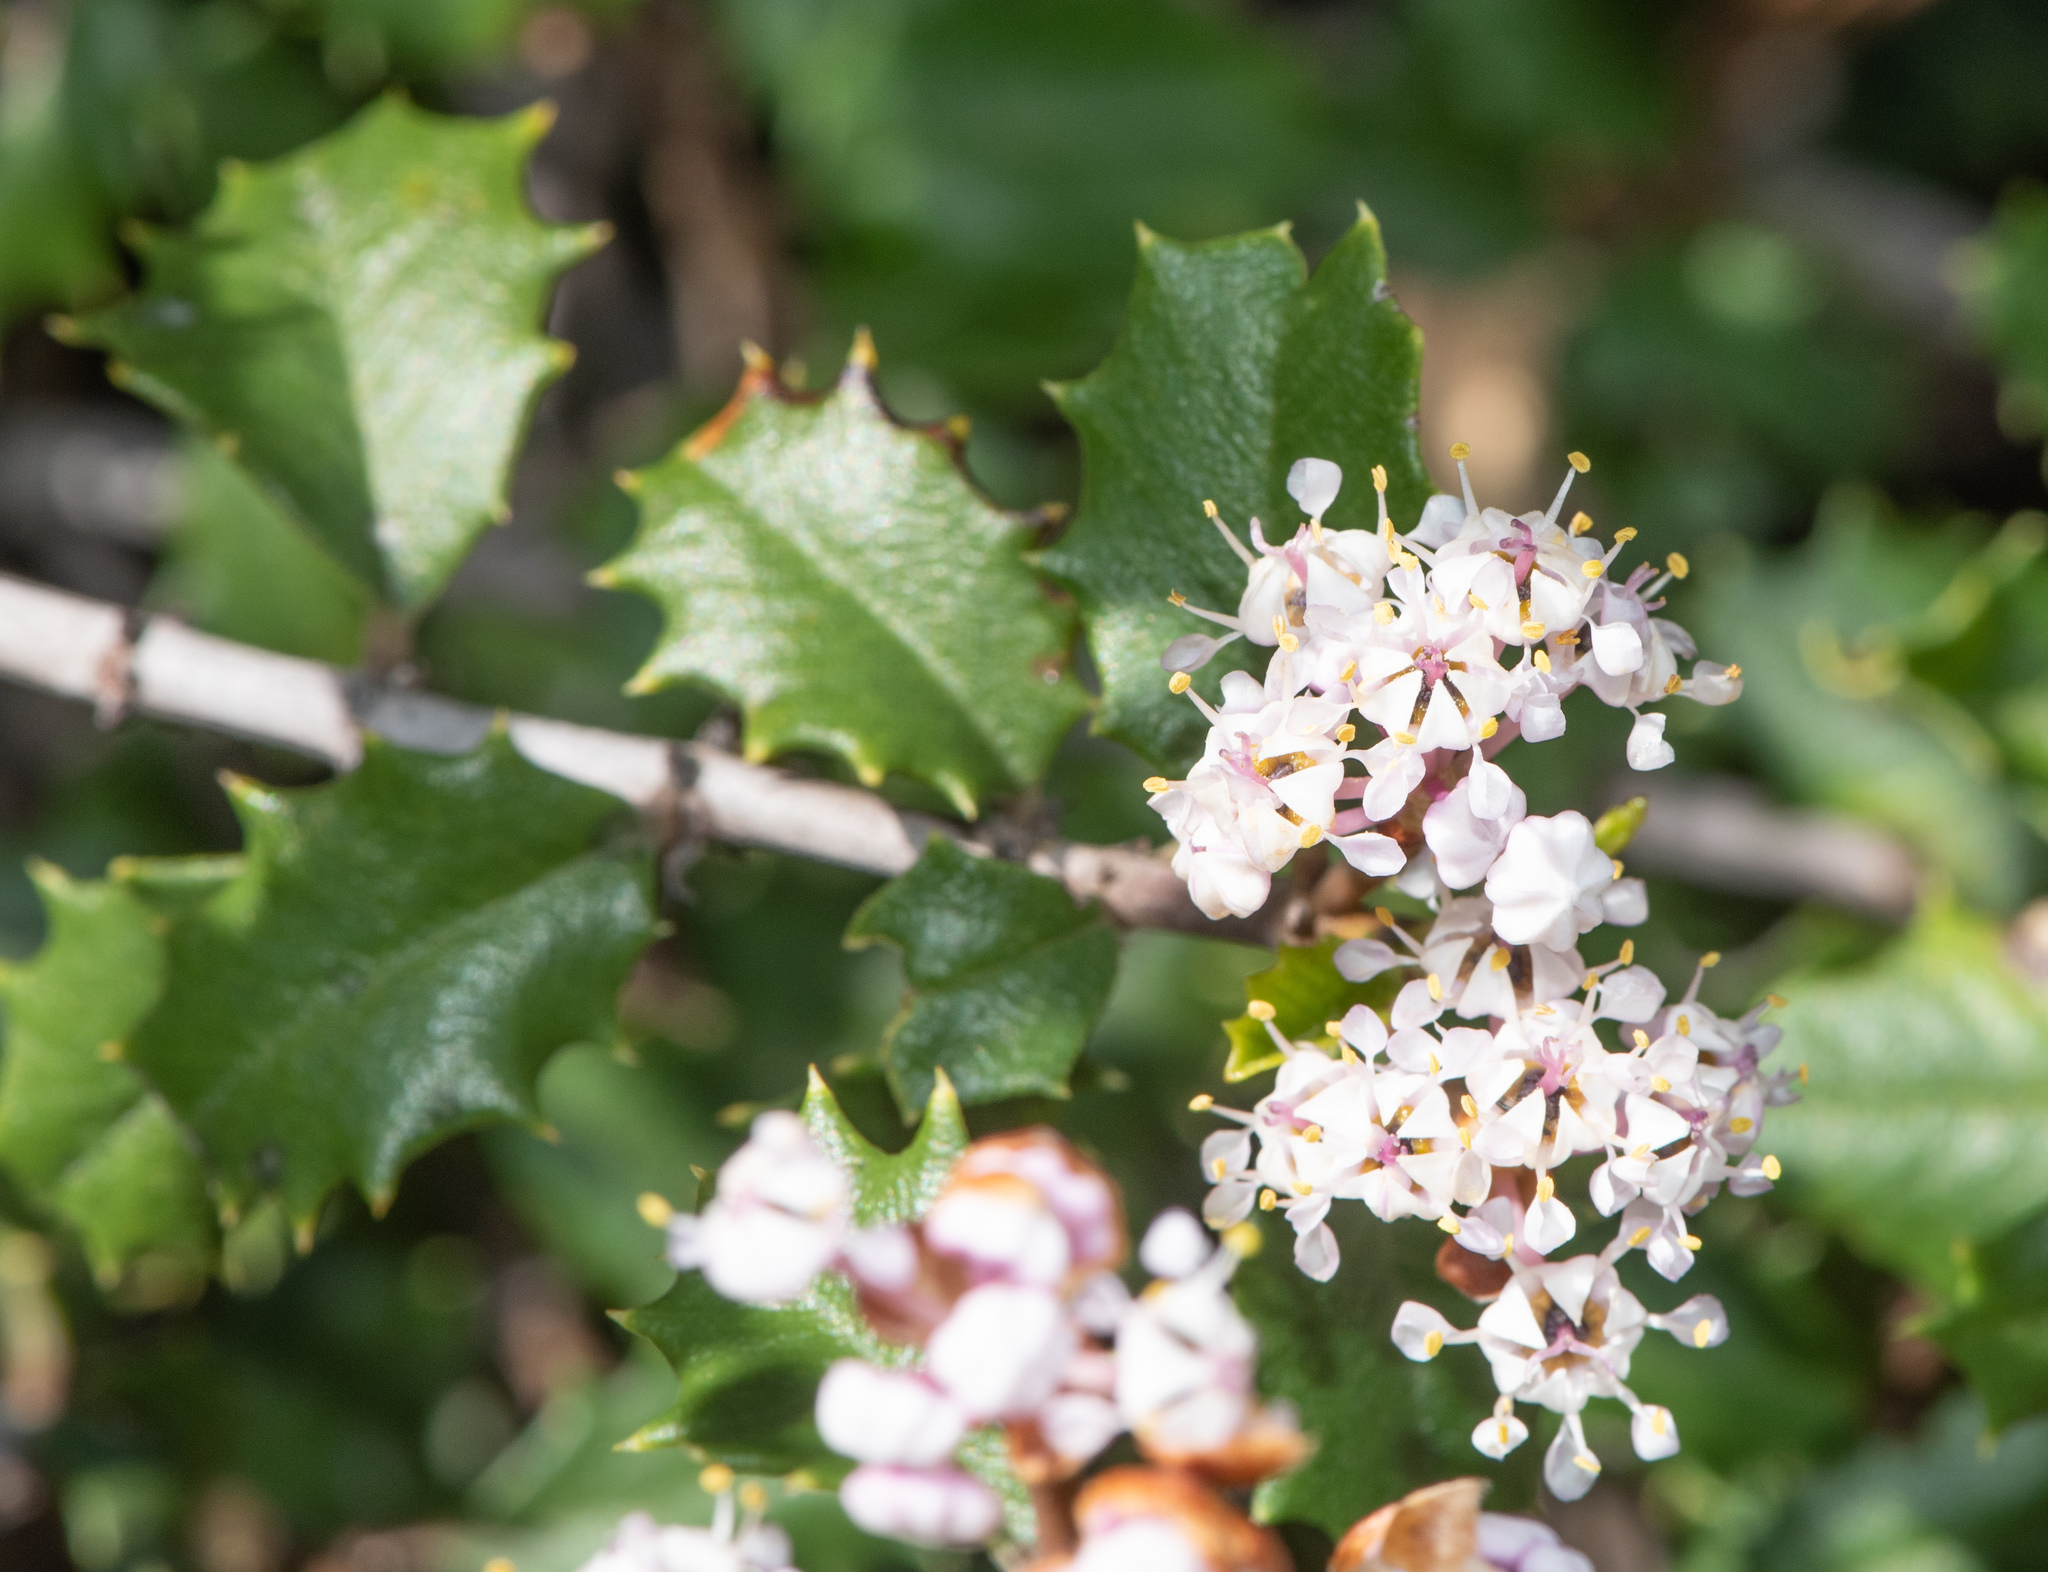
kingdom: Plantae
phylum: Tracheophyta
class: Magnoliopsida
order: Rosales
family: Rhamnaceae
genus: Ceanothus
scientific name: Ceanothus jepsonii
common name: Muskbrush
